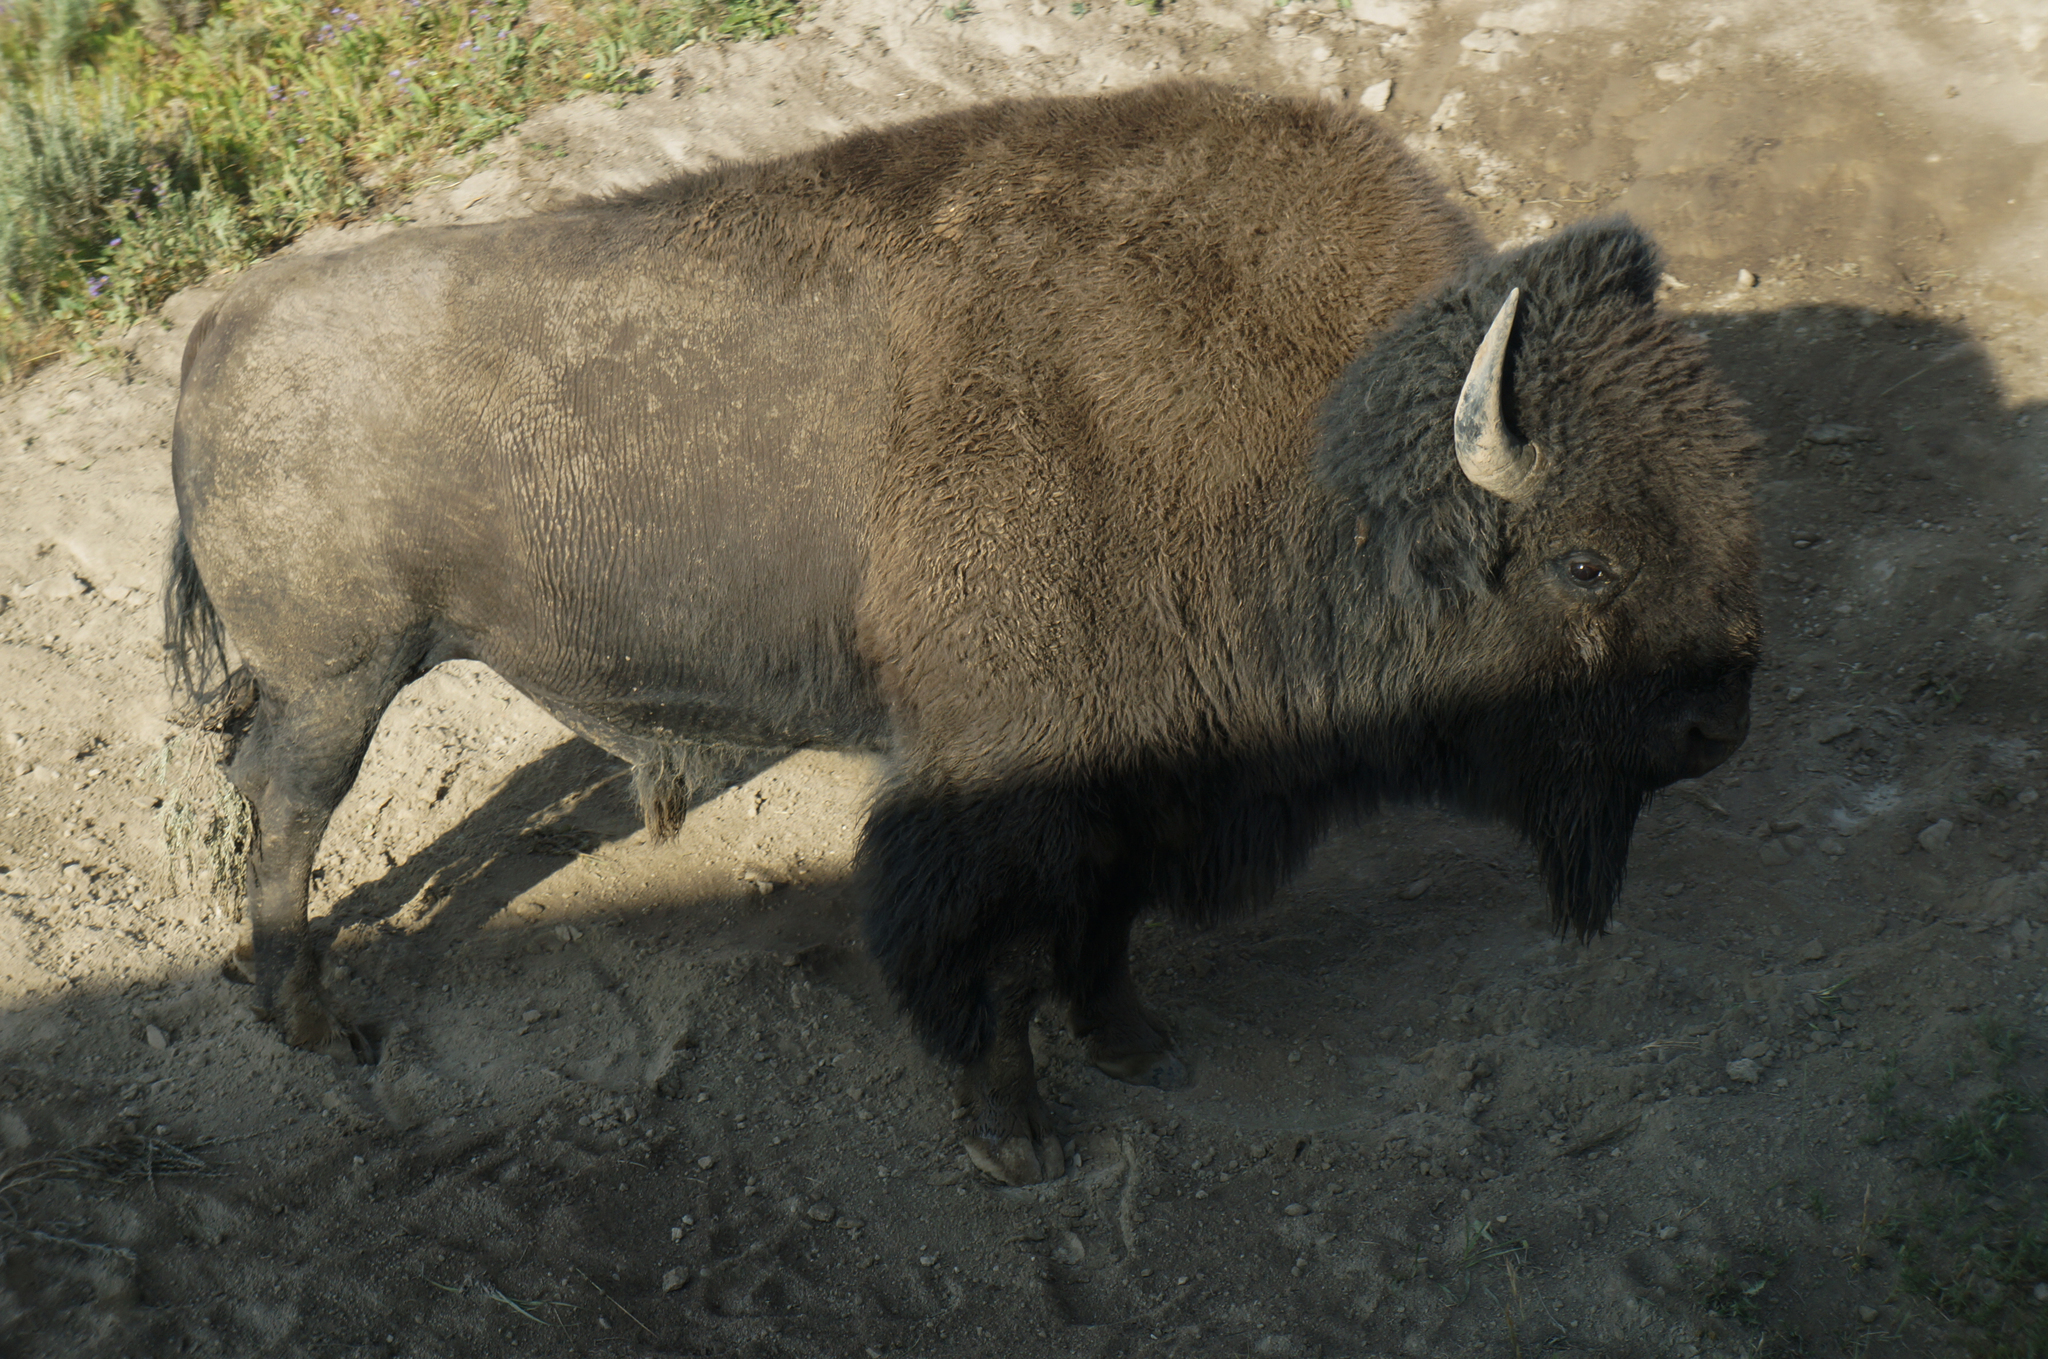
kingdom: Animalia
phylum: Chordata
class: Mammalia
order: Artiodactyla
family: Bovidae
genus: Bison
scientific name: Bison bison
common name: American bison
